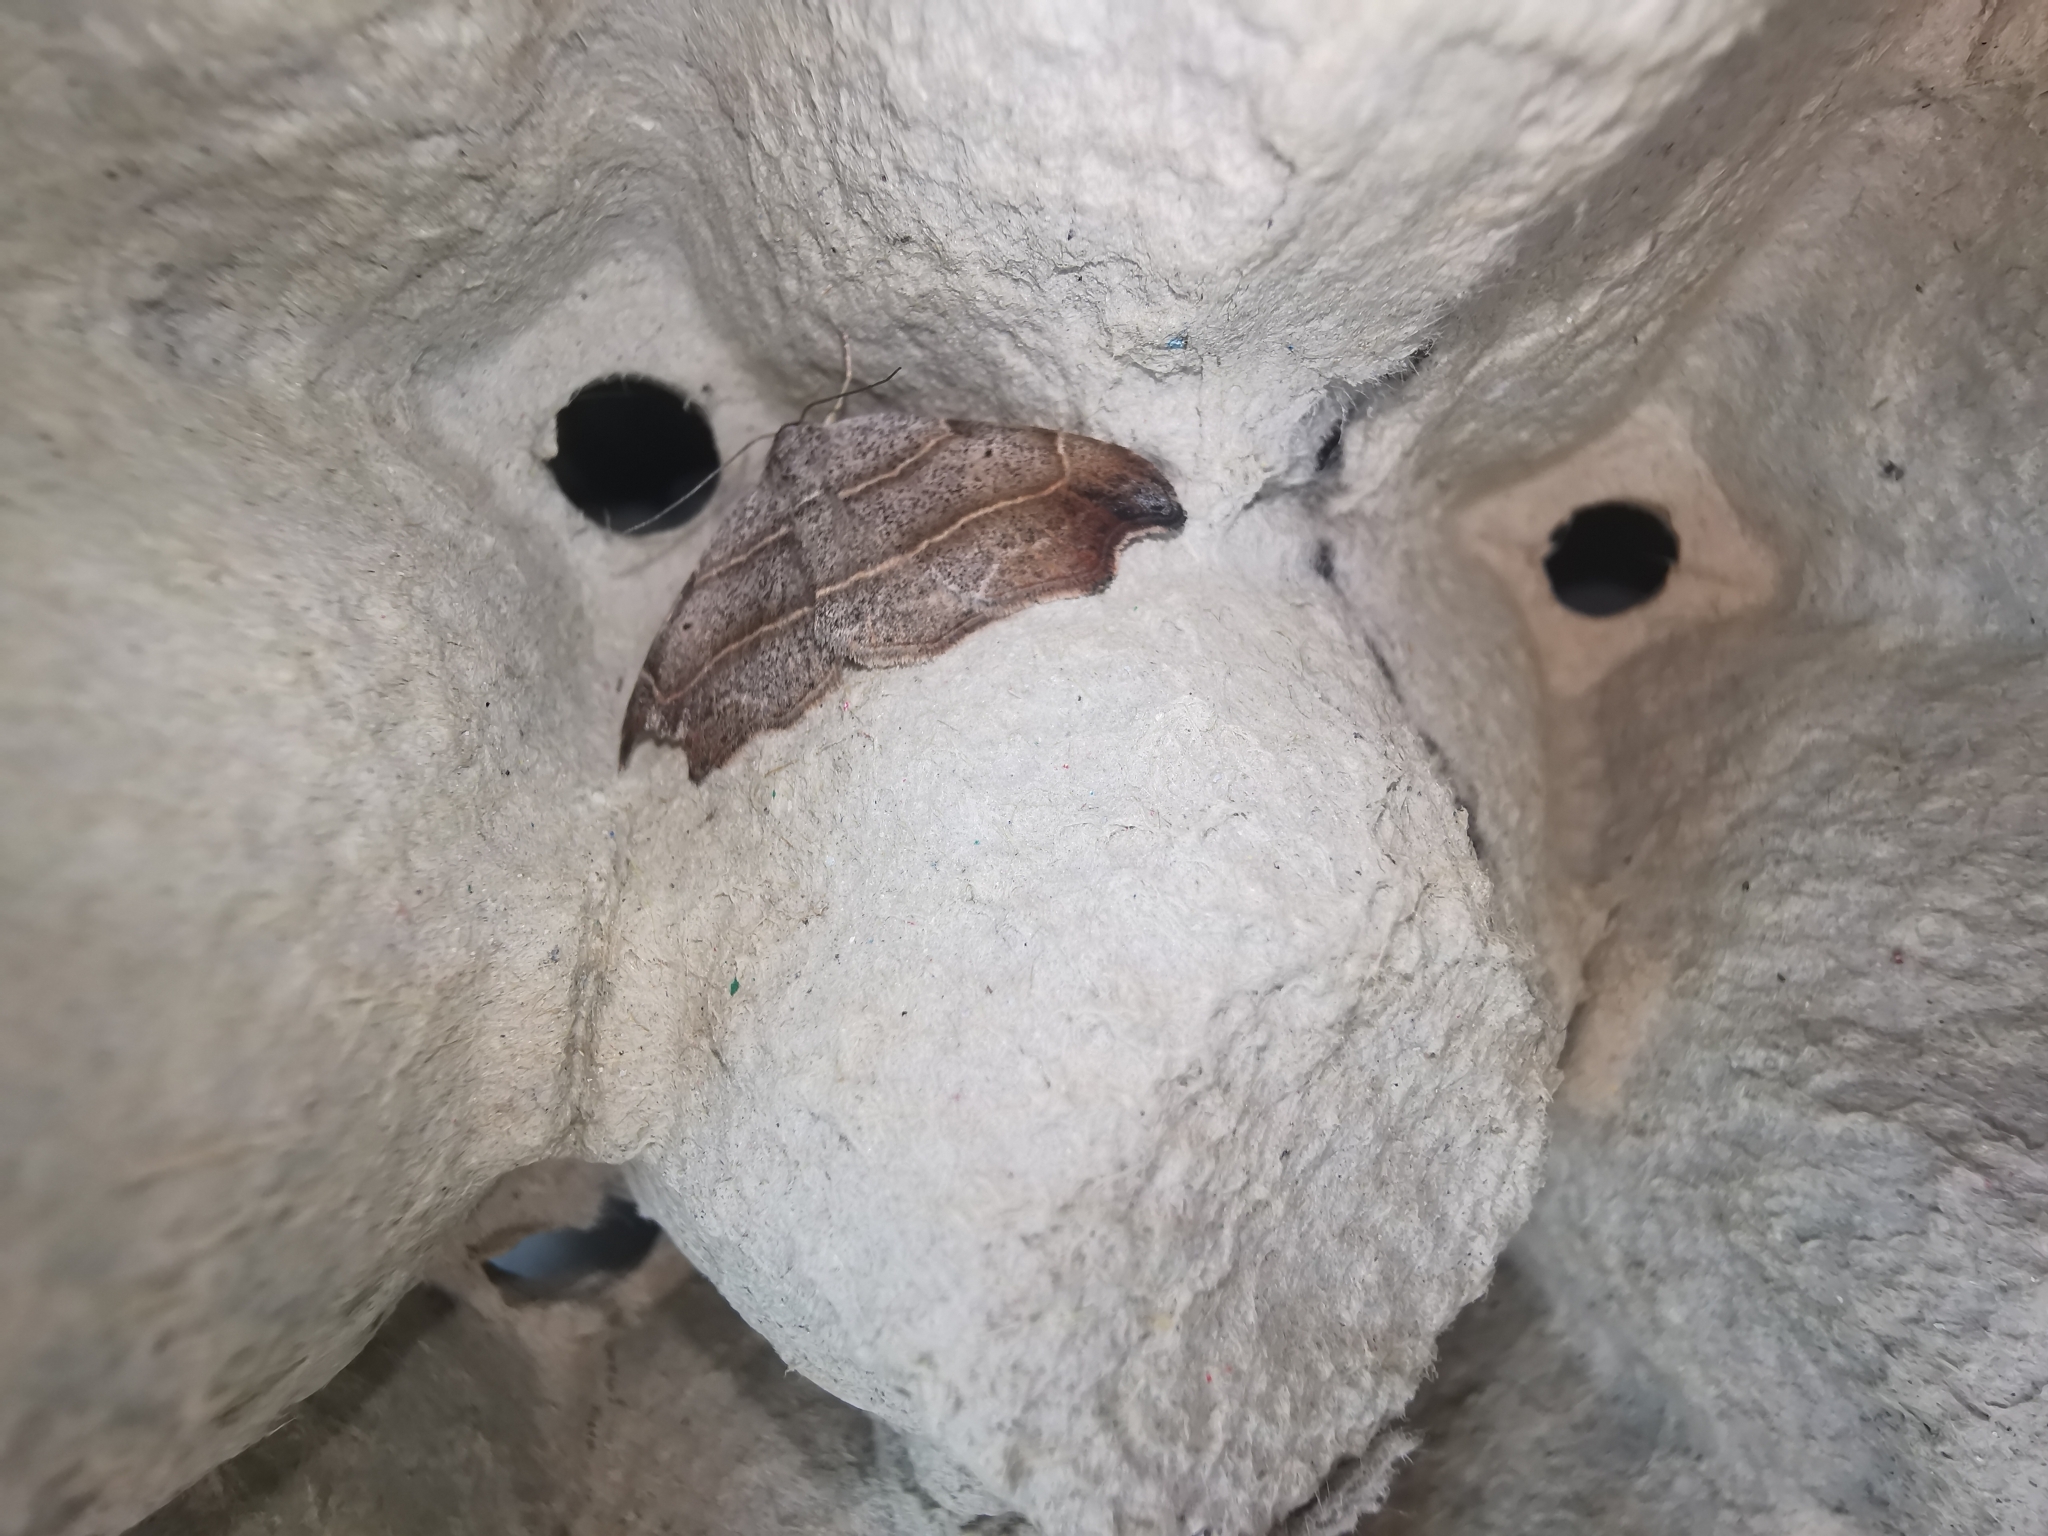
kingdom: Animalia
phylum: Arthropoda
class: Insecta
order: Lepidoptera
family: Erebidae
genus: Laspeyria
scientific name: Laspeyria flexula
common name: Beautiful hook-tip
